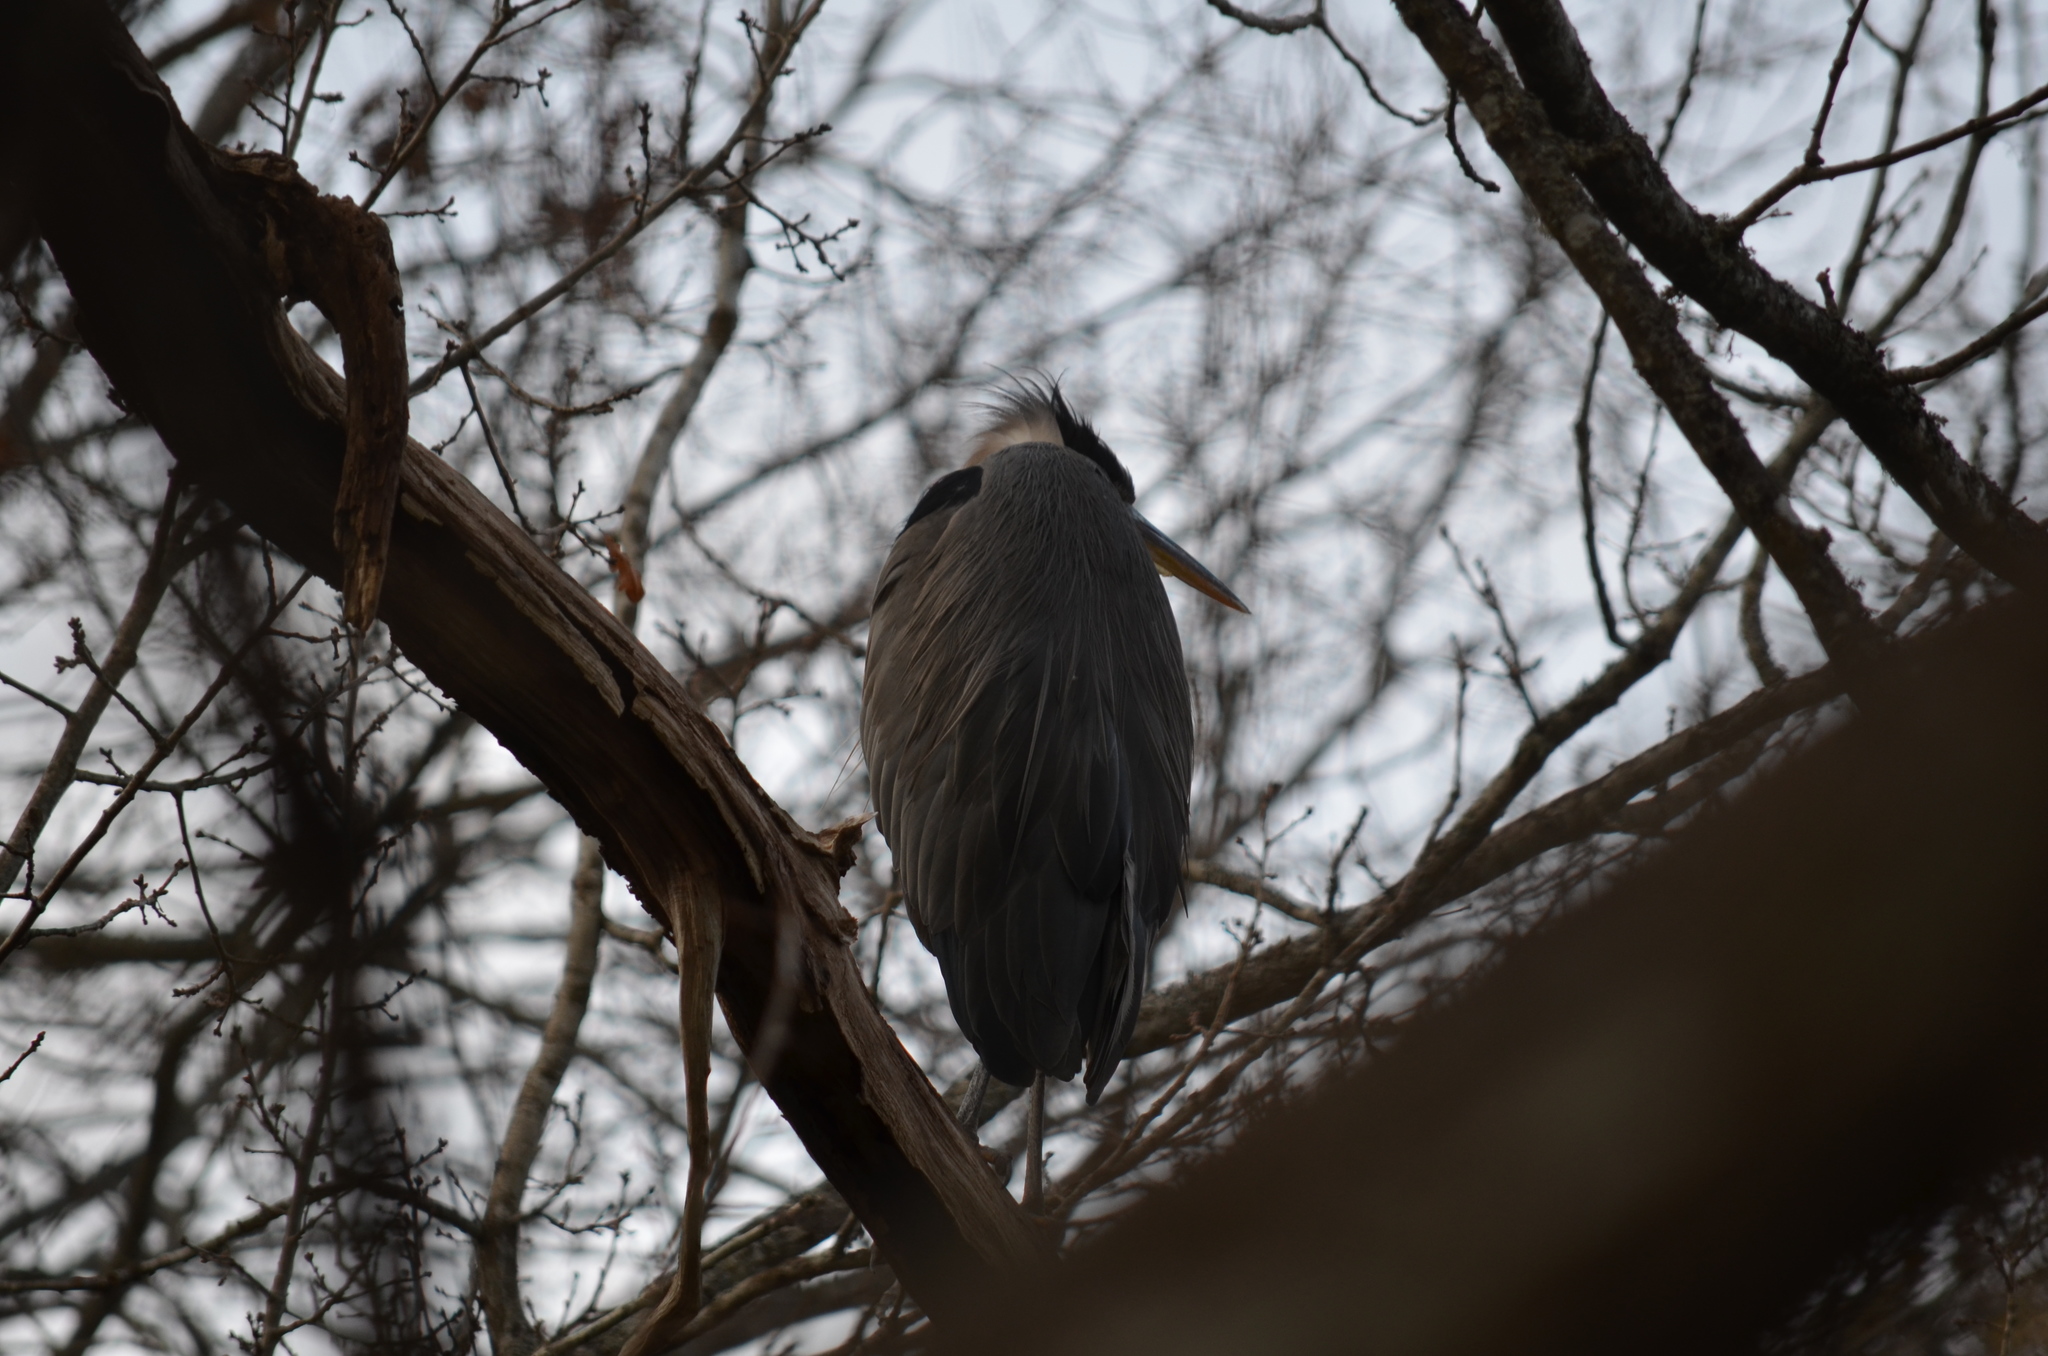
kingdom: Animalia
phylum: Chordata
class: Aves
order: Pelecaniformes
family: Ardeidae
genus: Ardea
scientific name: Ardea herodias
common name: Great blue heron
